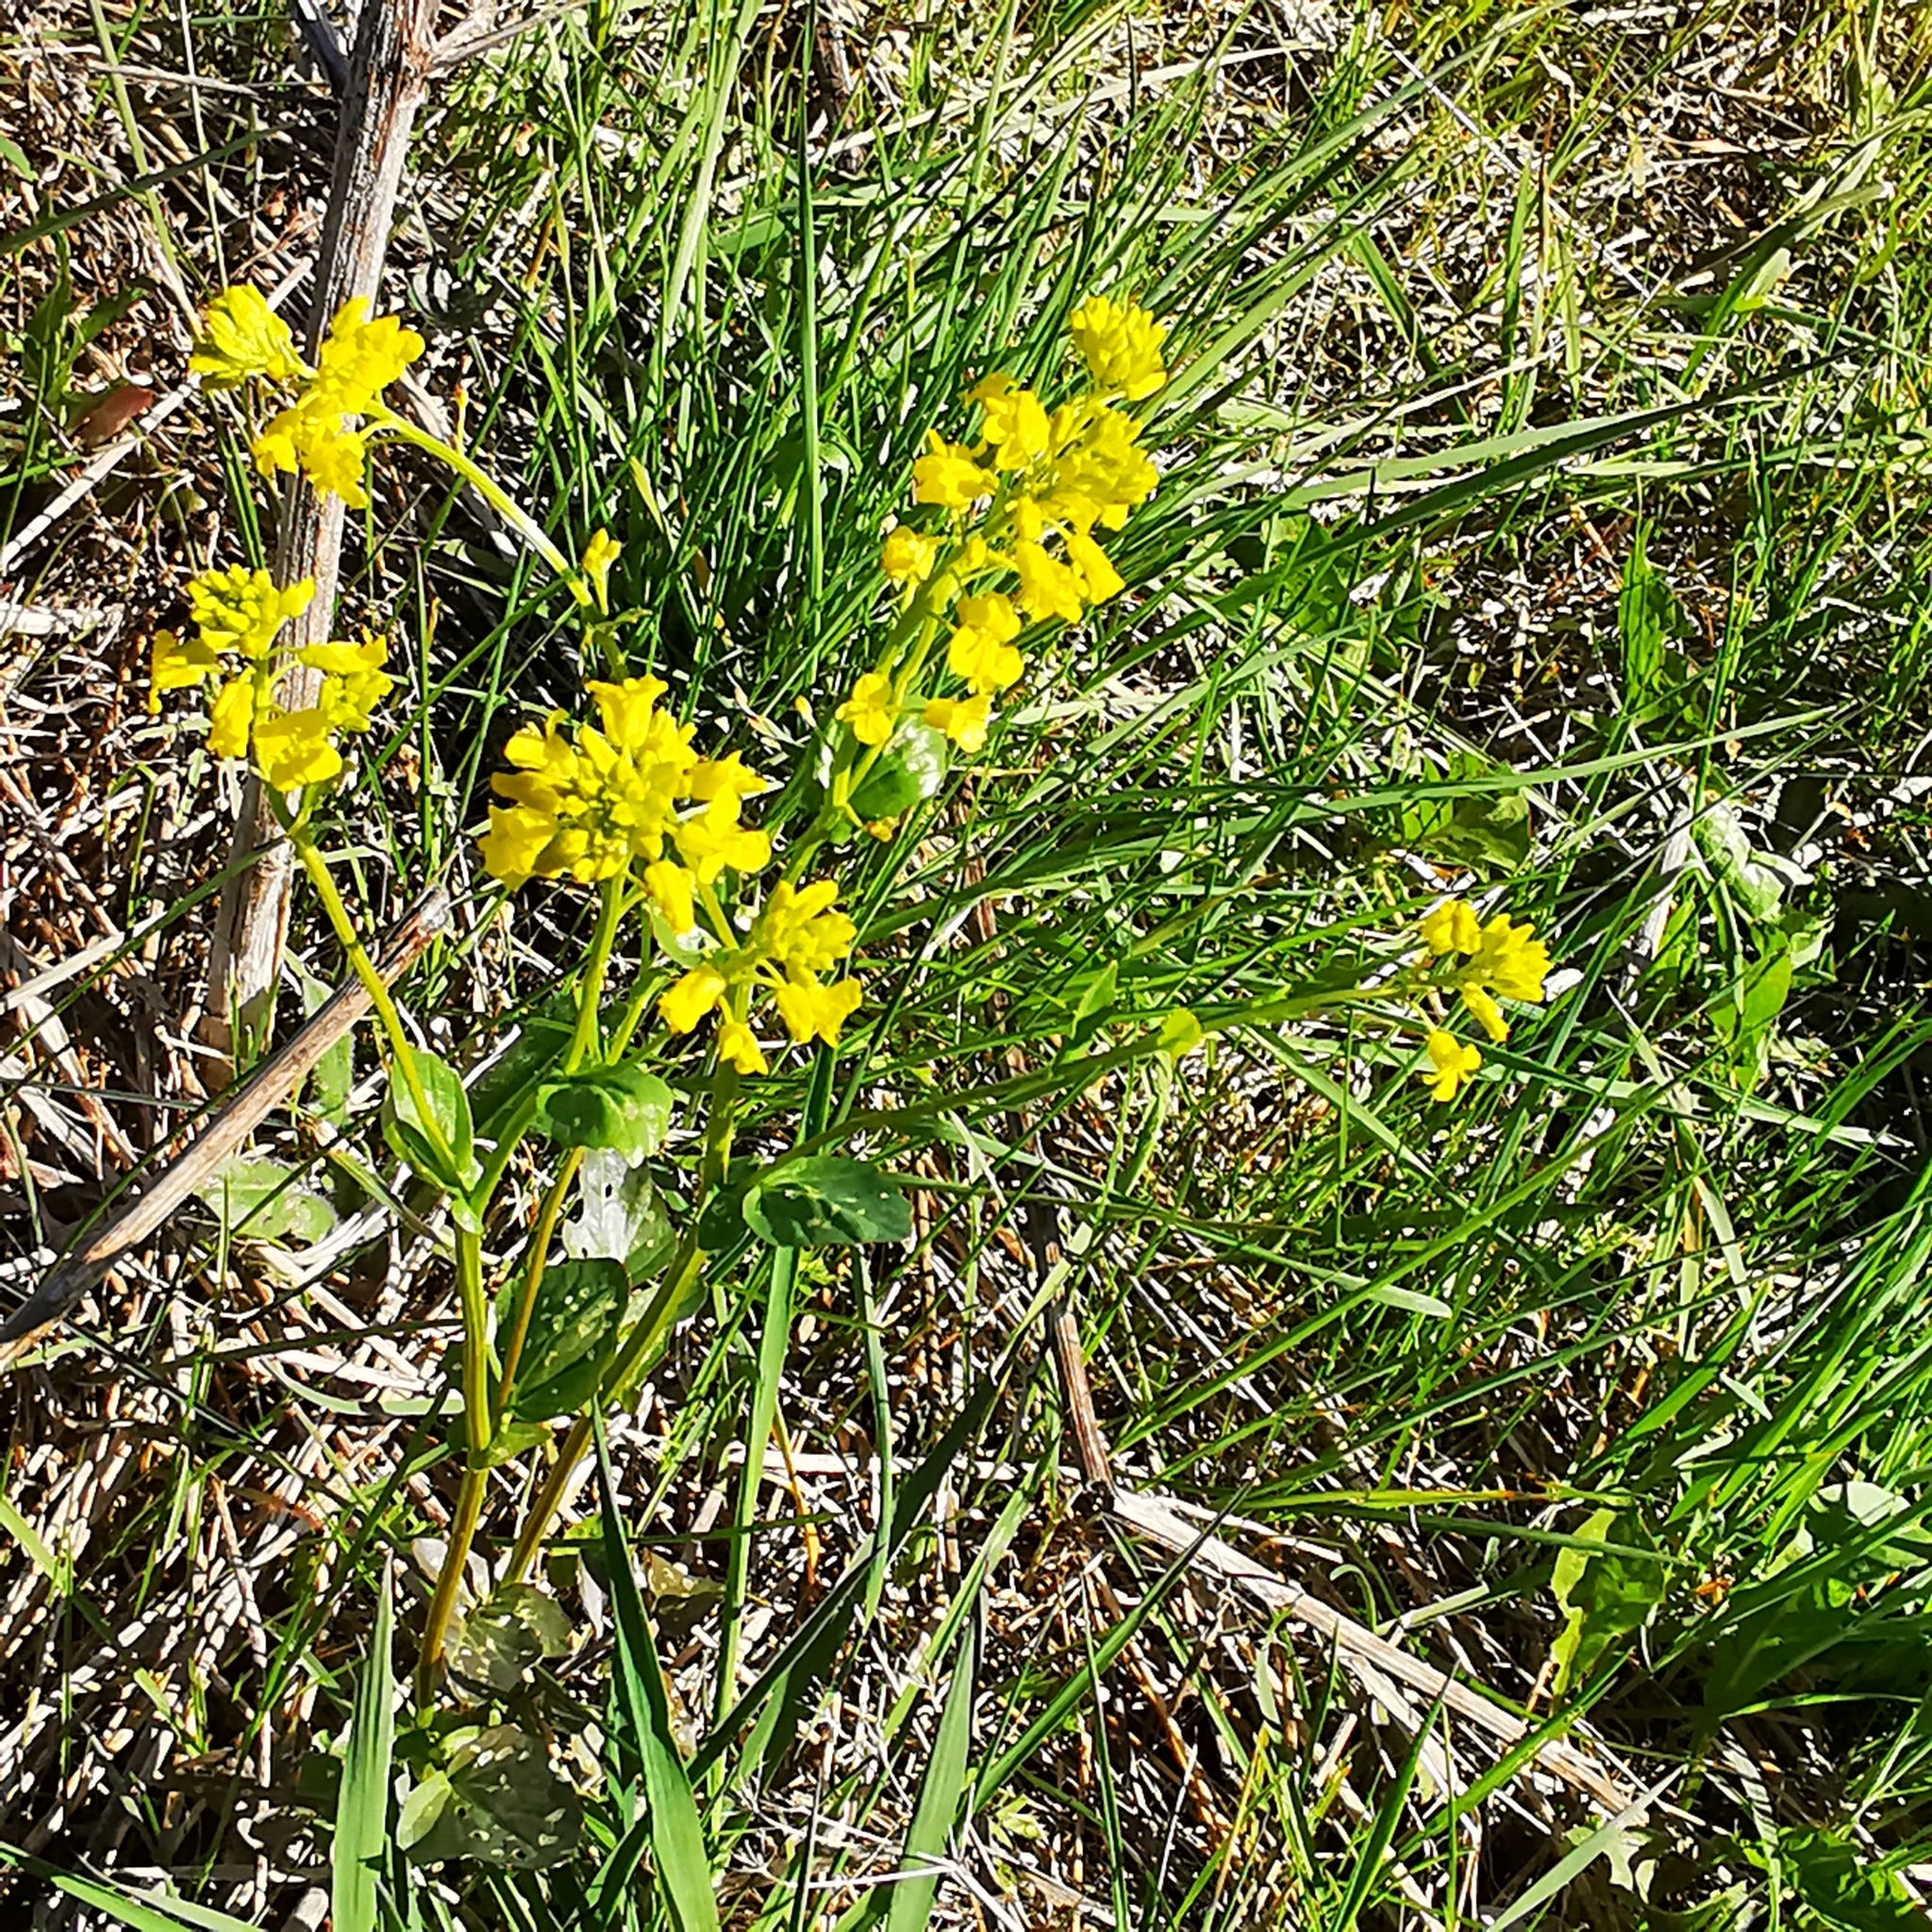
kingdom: Plantae
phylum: Tracheophyta
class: Magnoliopsida
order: Brassicales
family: Brassicaceae
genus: Barbarea
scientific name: Barbarea vulgaris
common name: Cressy-greens
